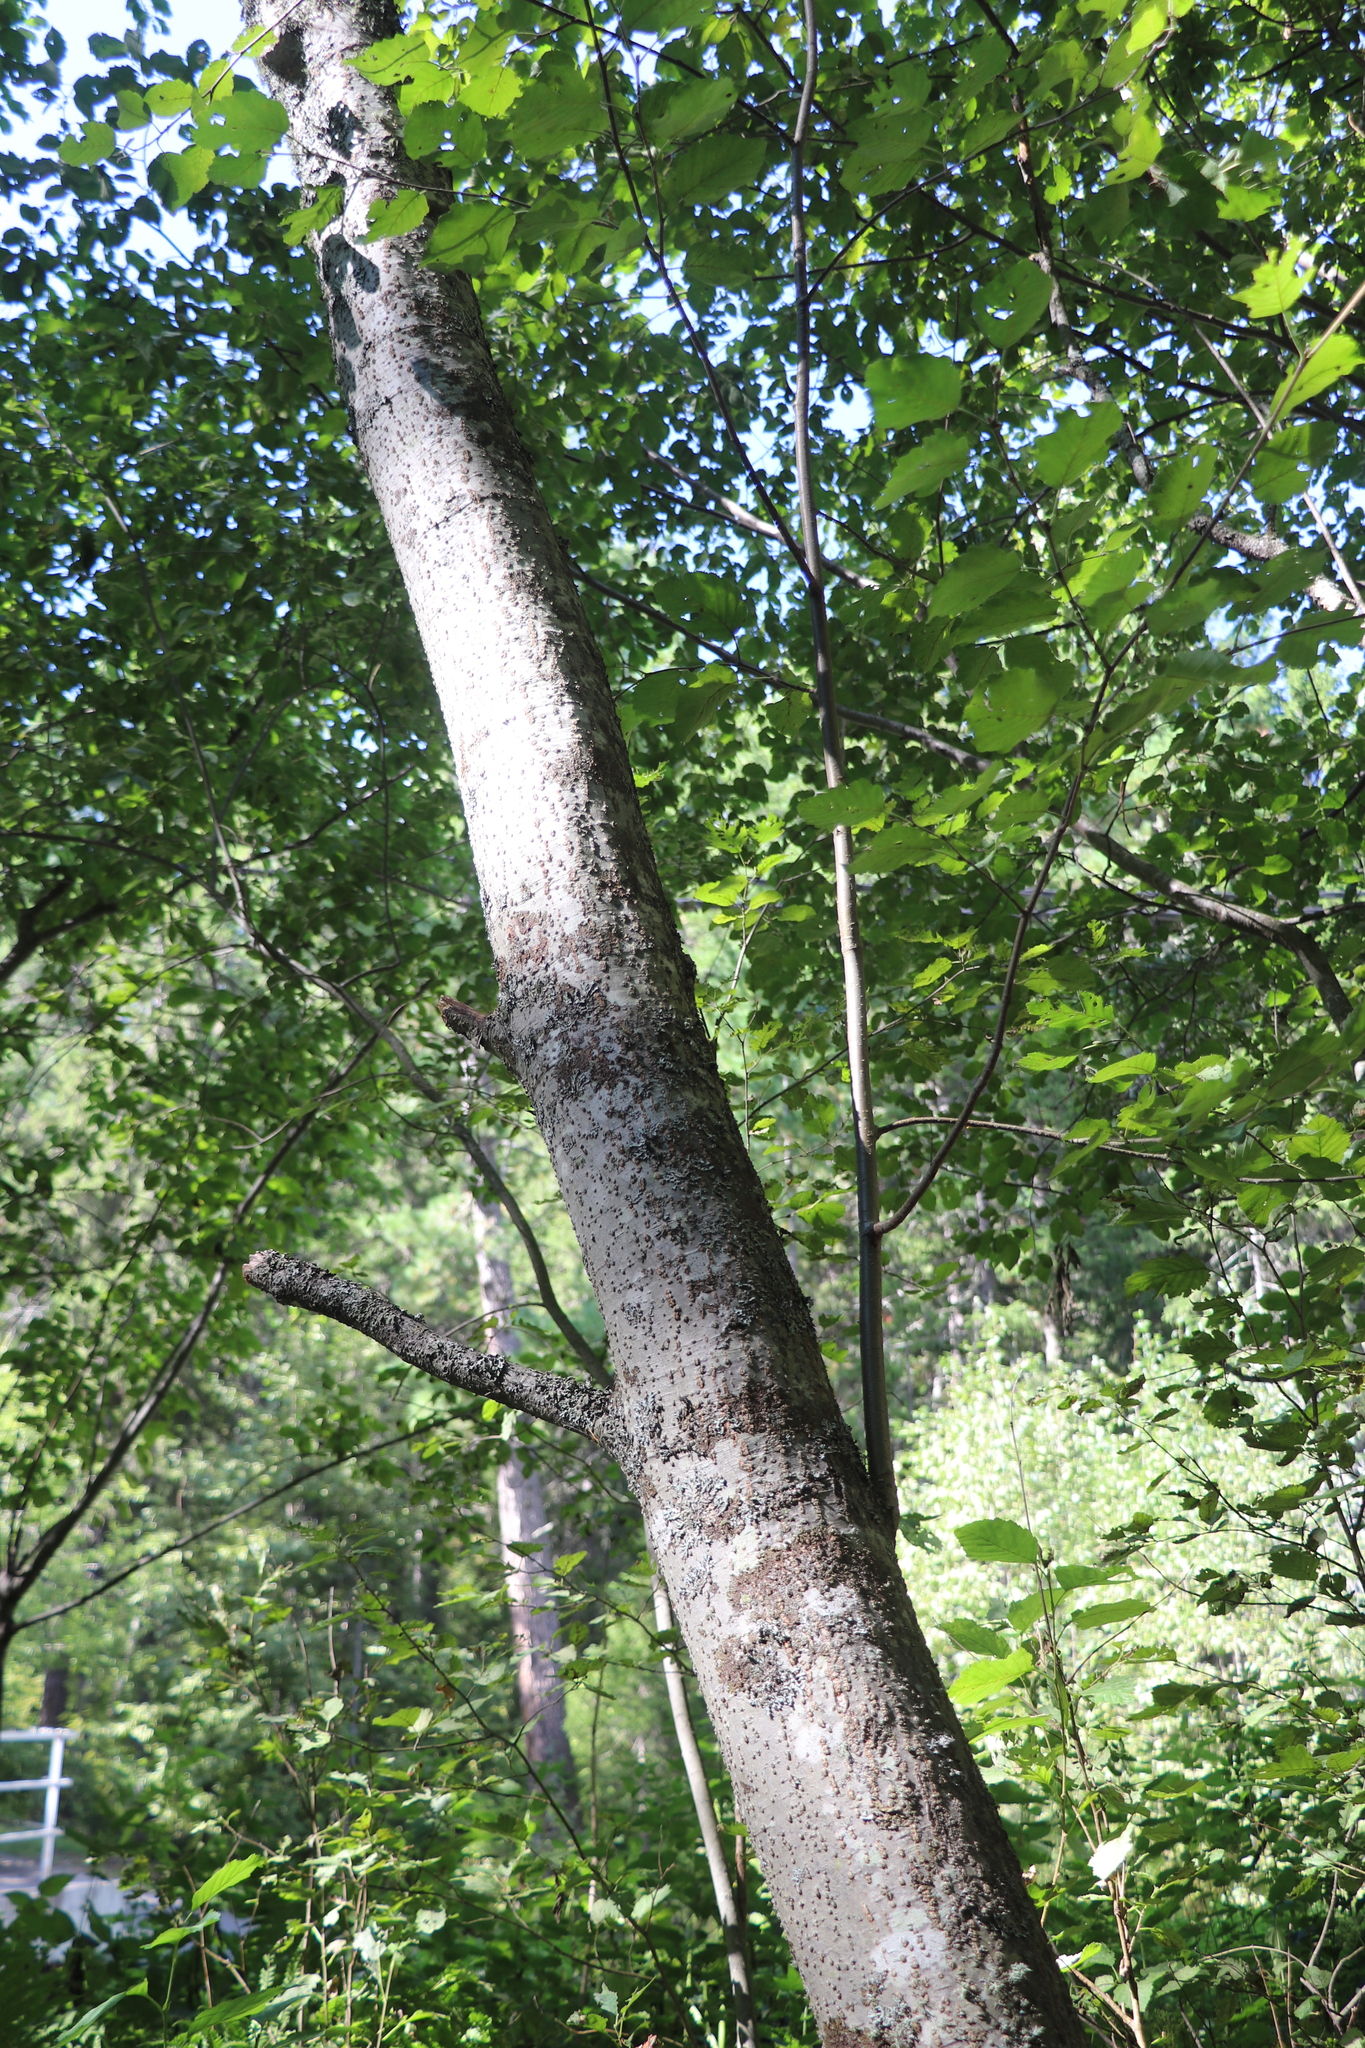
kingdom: Plantae
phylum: Tracheophyta
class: Magnoliopsida
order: Fagales
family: Betulaceae
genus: Alnus
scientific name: Alnus incana
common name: Grey alder
